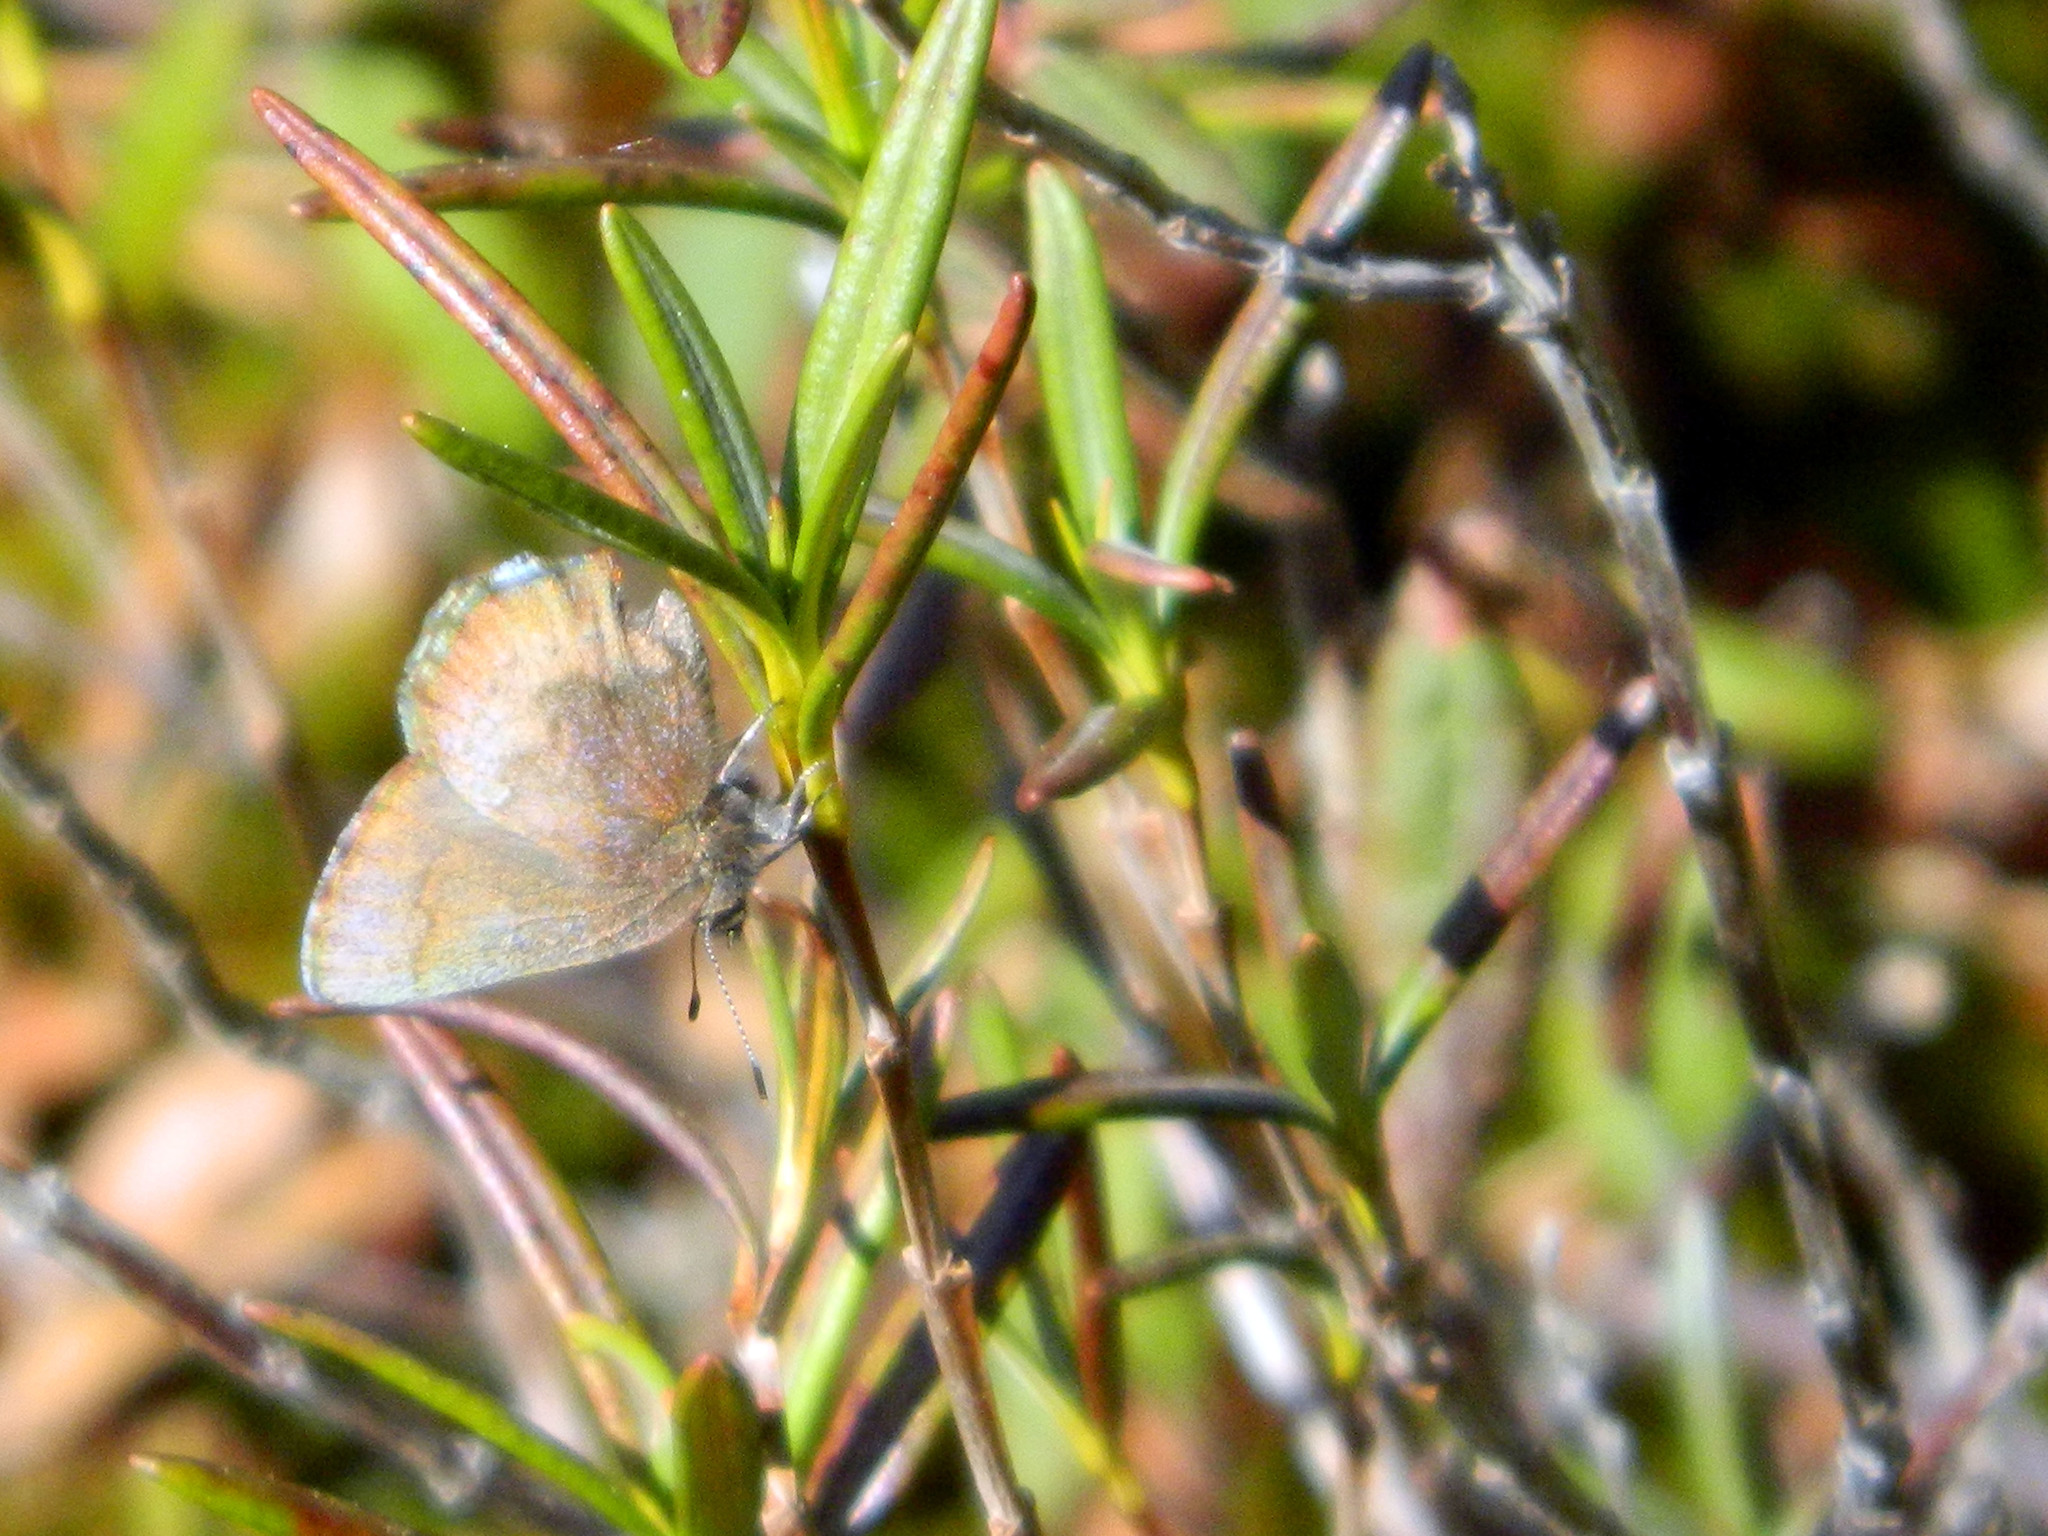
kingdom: Animalia
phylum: Arthropoda
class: Insecta
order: Lepidoptera
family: Lycaenidae
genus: Incisalia
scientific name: Incisalia irioides
